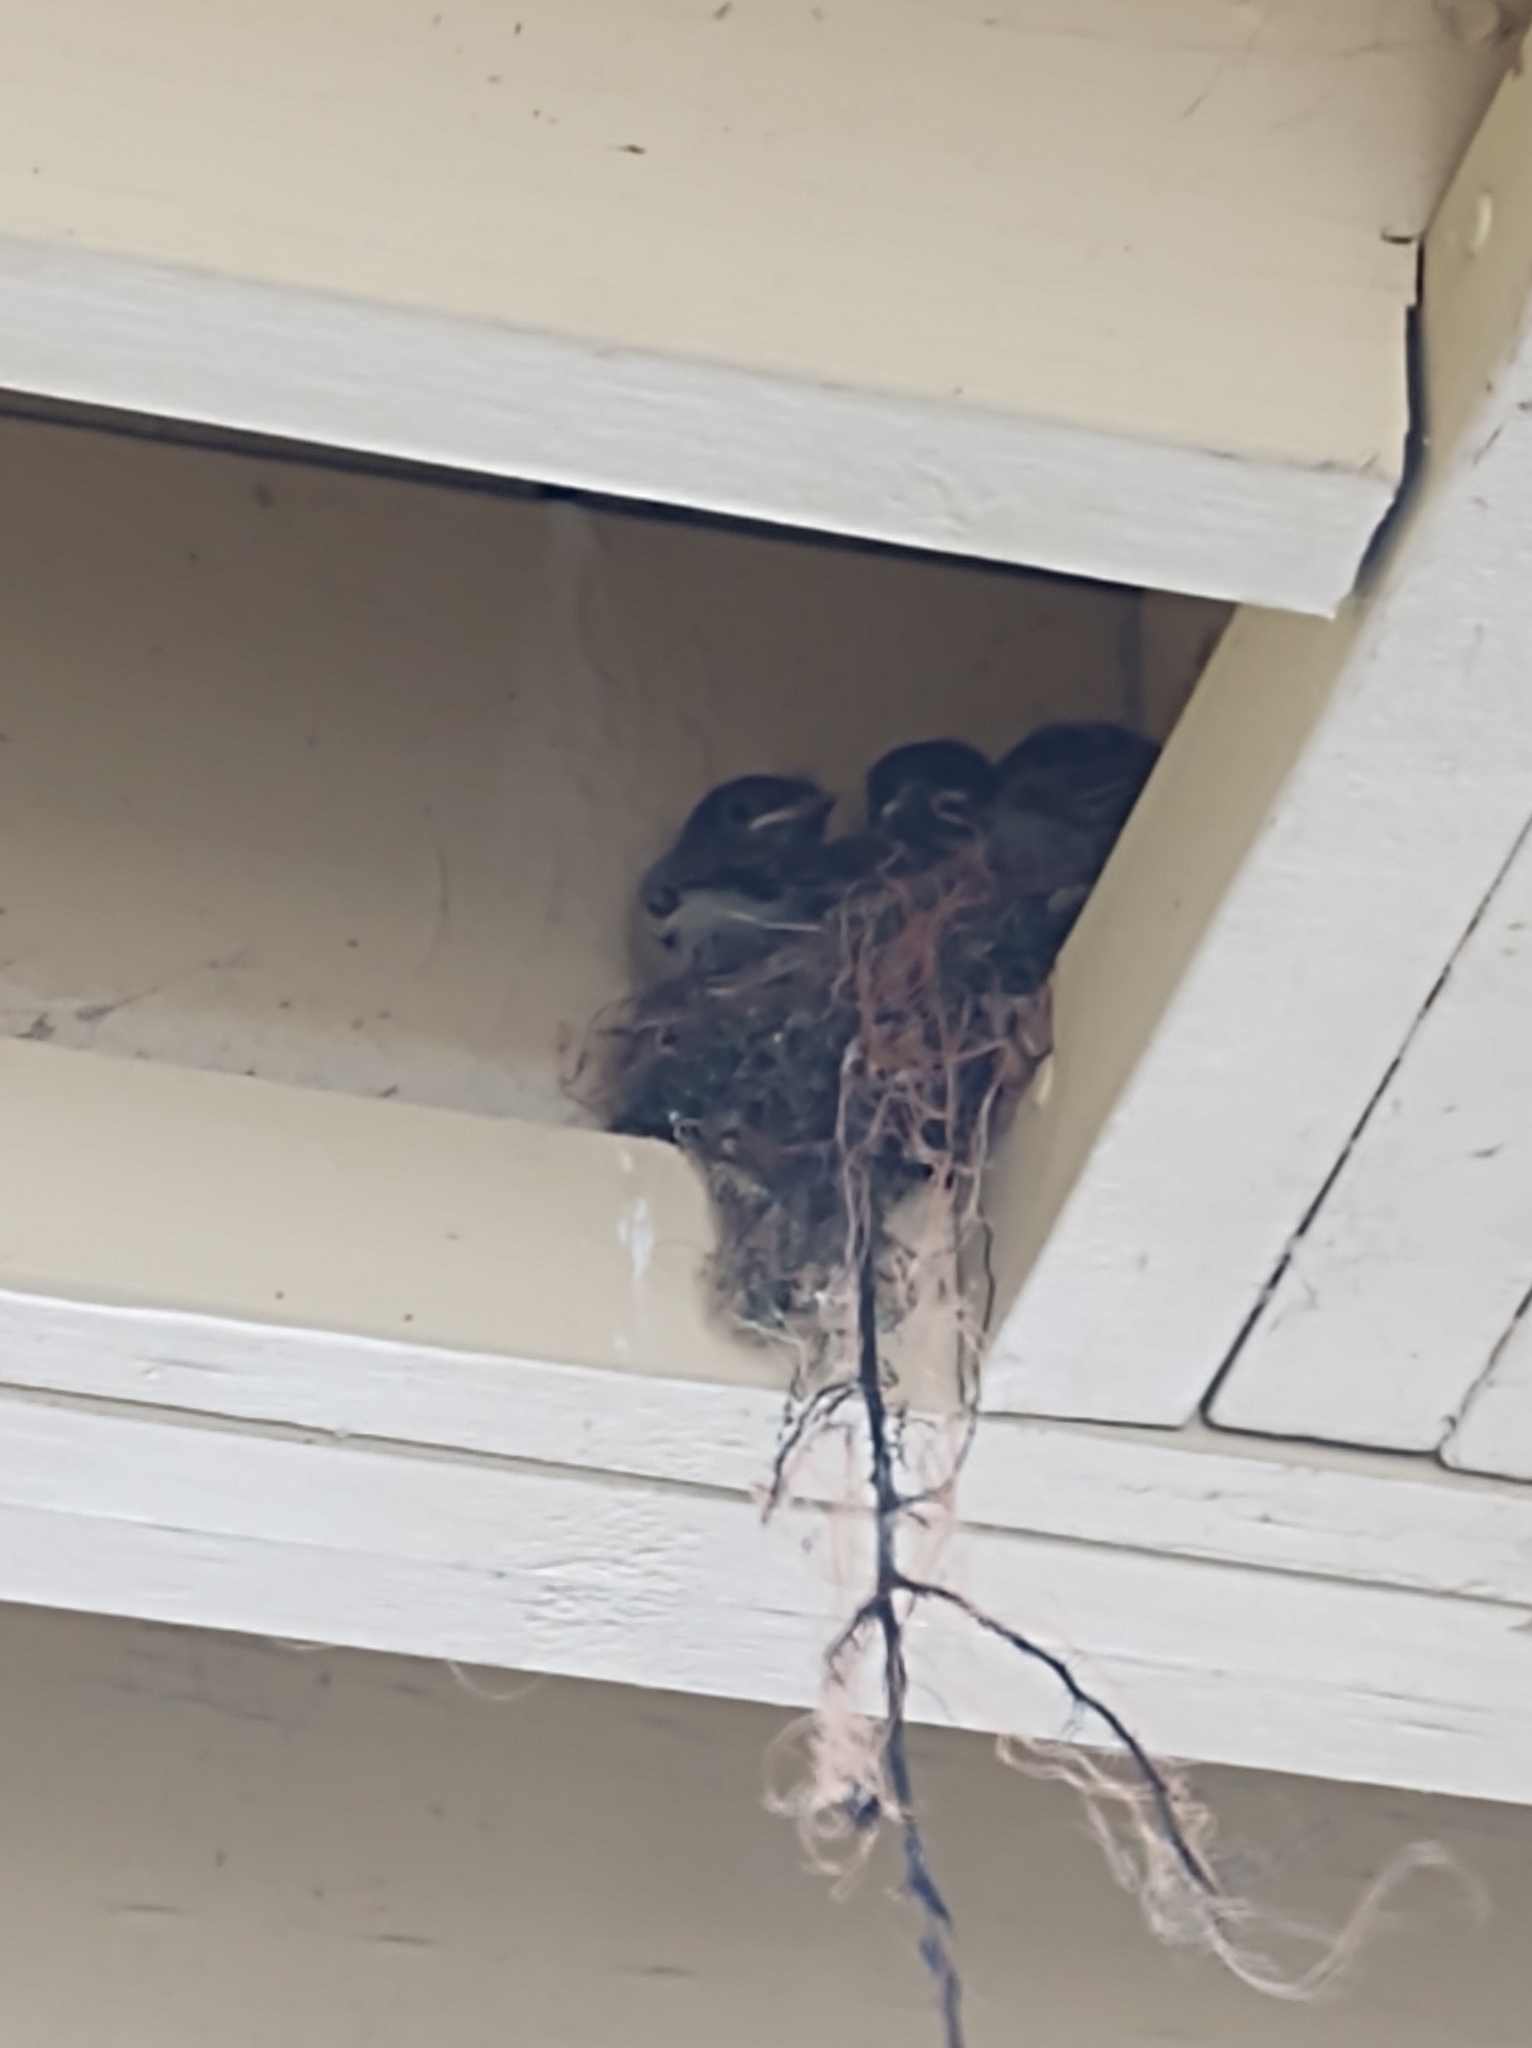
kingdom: Animalia
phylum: Chordata
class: Aves
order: Passeriformes
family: Tyrannidae
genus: Sayornis
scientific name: Sayornis phoebe
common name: Eastern phoebe
